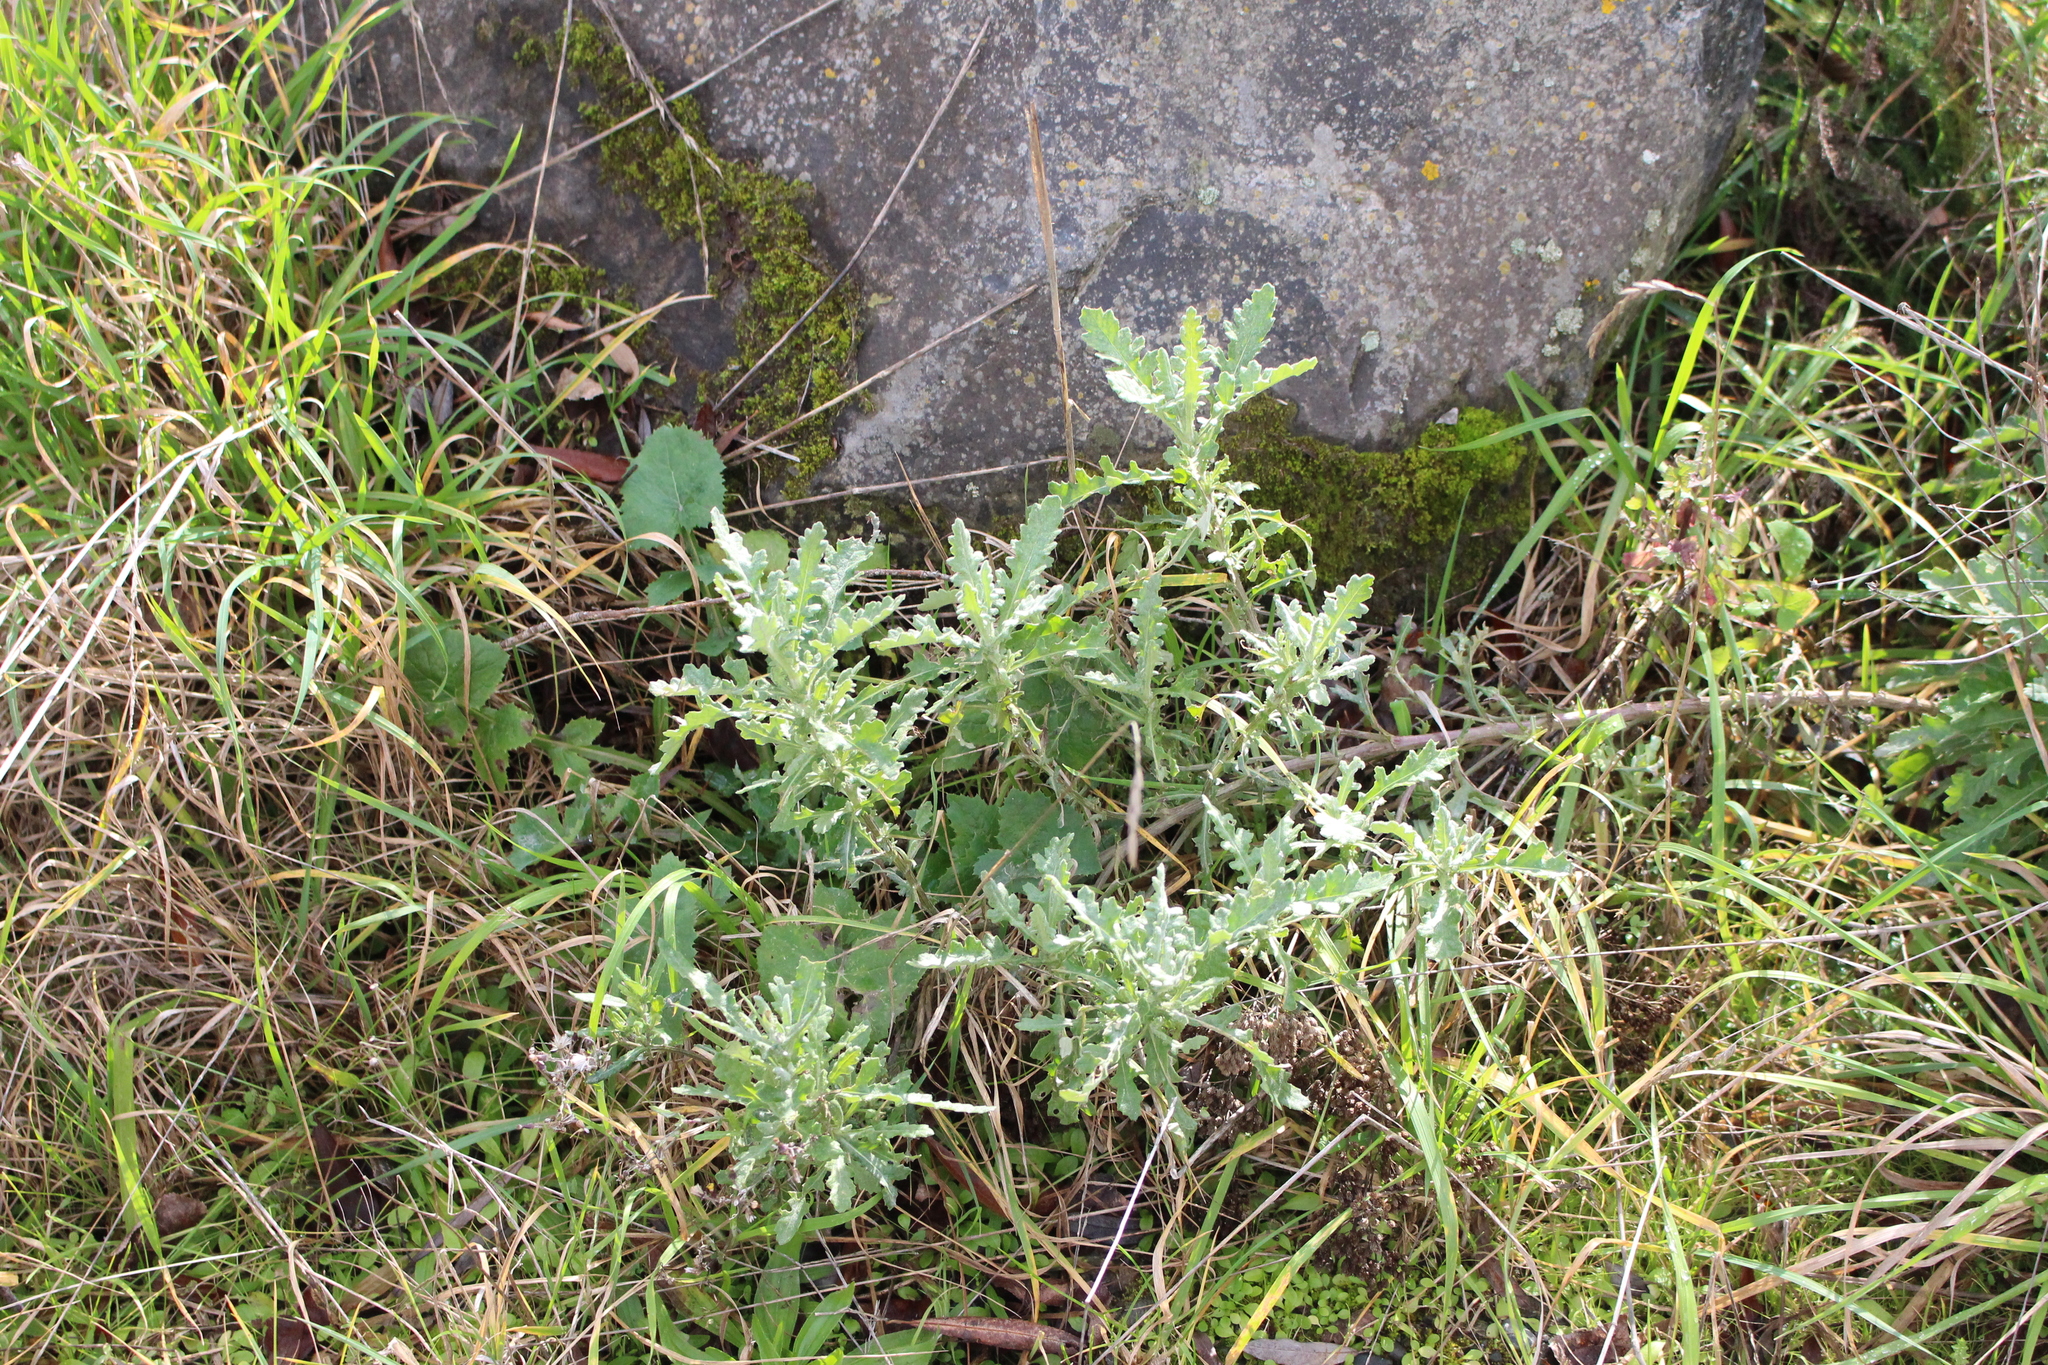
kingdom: Plantae
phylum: Tracheophyta
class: Magnoliopsida
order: Asterales
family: Asteraceae
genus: Senecio
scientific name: Senecio glomeratus
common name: Cutleaf burnweed
